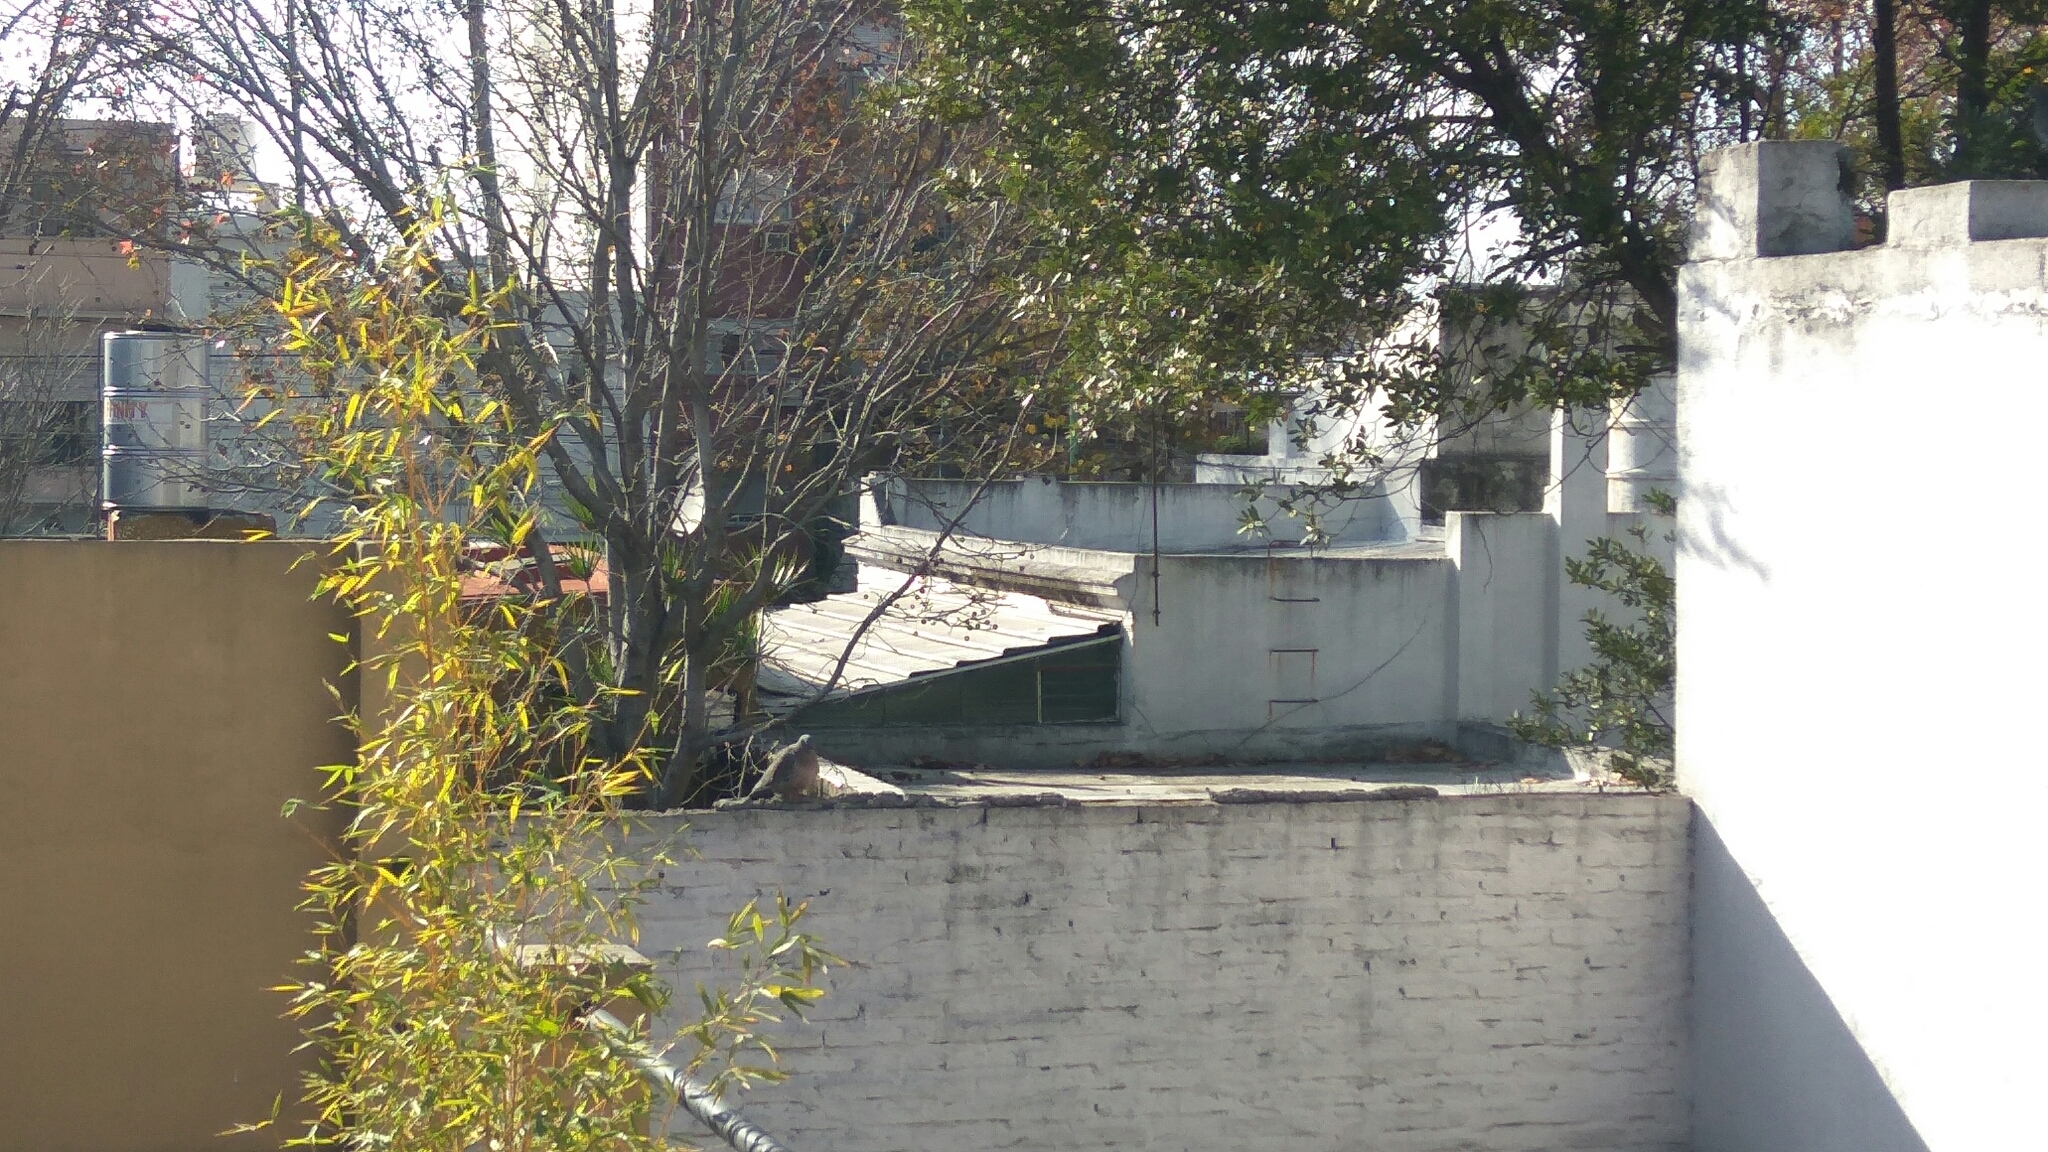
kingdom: Animalia
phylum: Chordata
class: Aves
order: Columbiformes
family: Columbidae
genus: Patagioenas
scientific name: Patagioenas picazuro
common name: Picazuro pigeon
